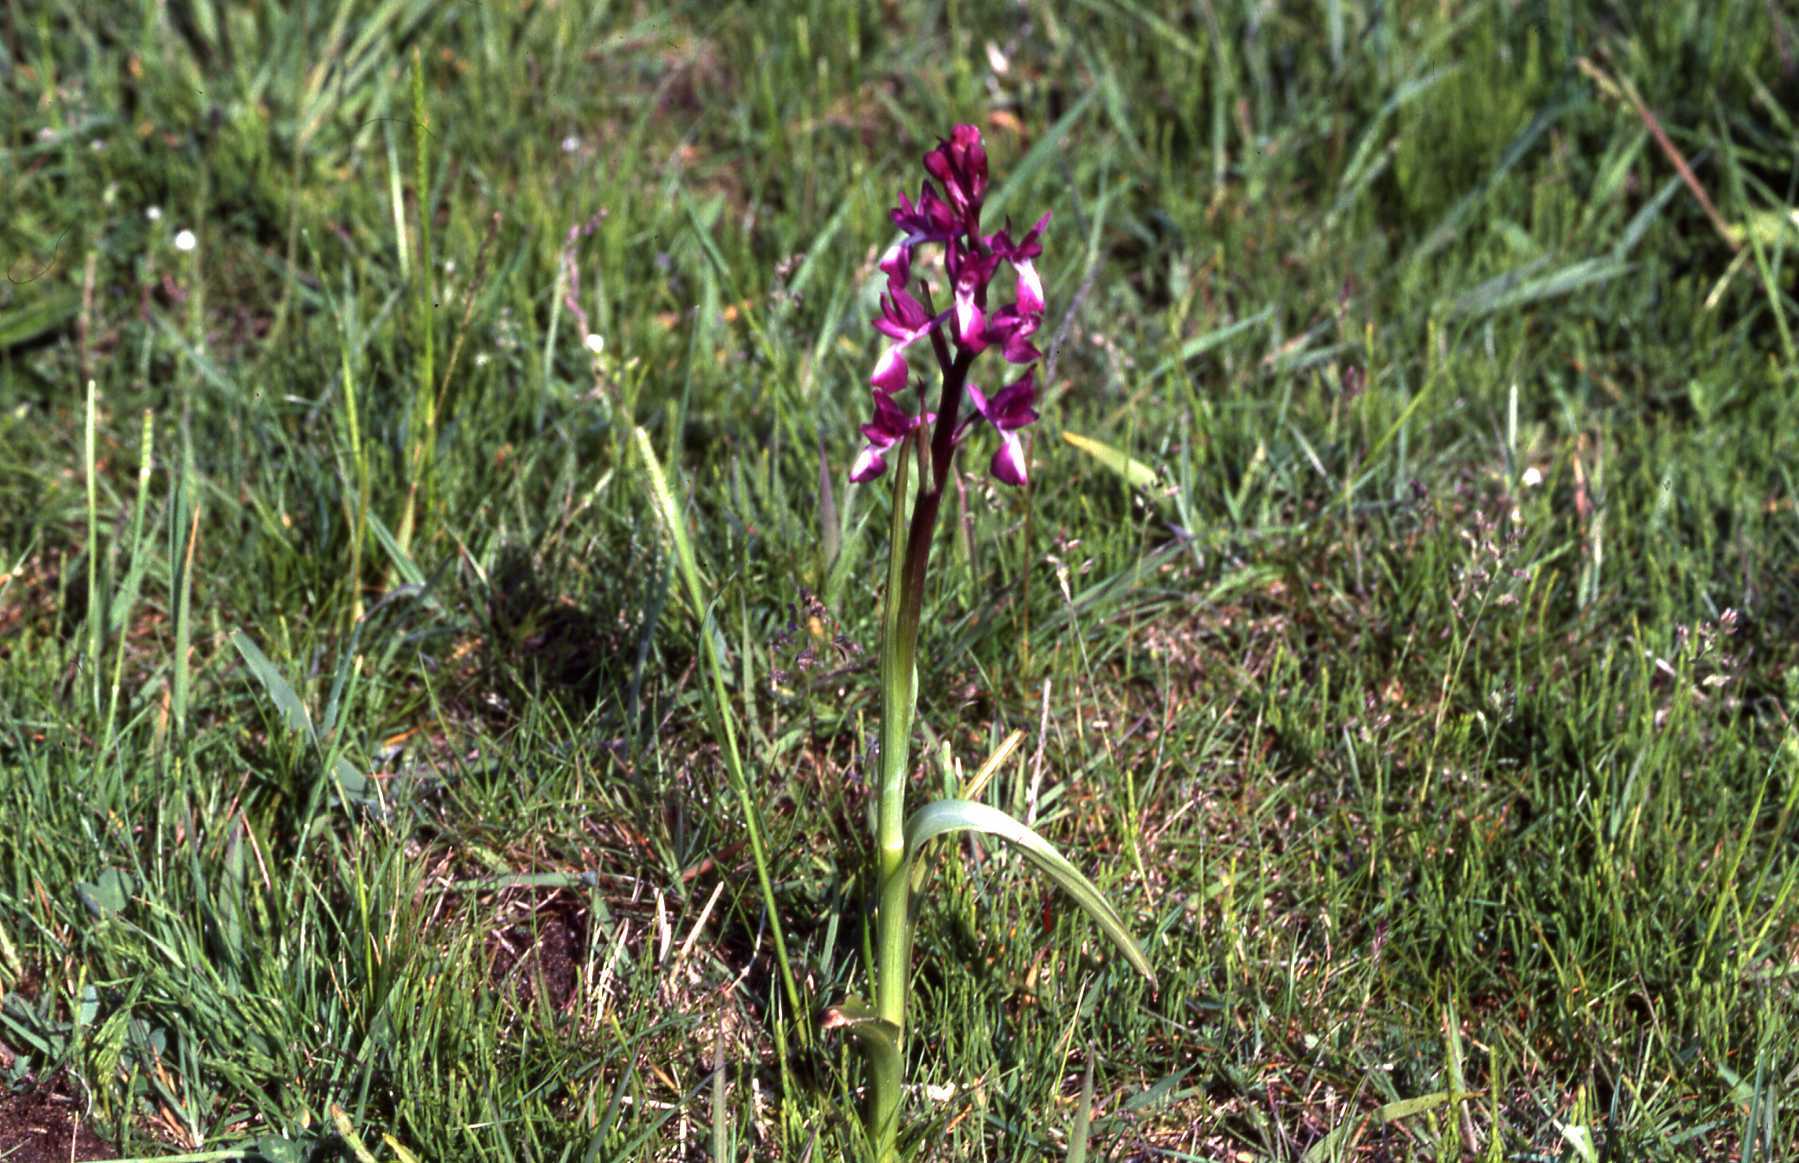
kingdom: Plantae
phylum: Tracheophyta
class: Liliopsida
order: Asparagales
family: Orchidaceae
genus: Anacamptis
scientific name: Anacamptis laxiflora
